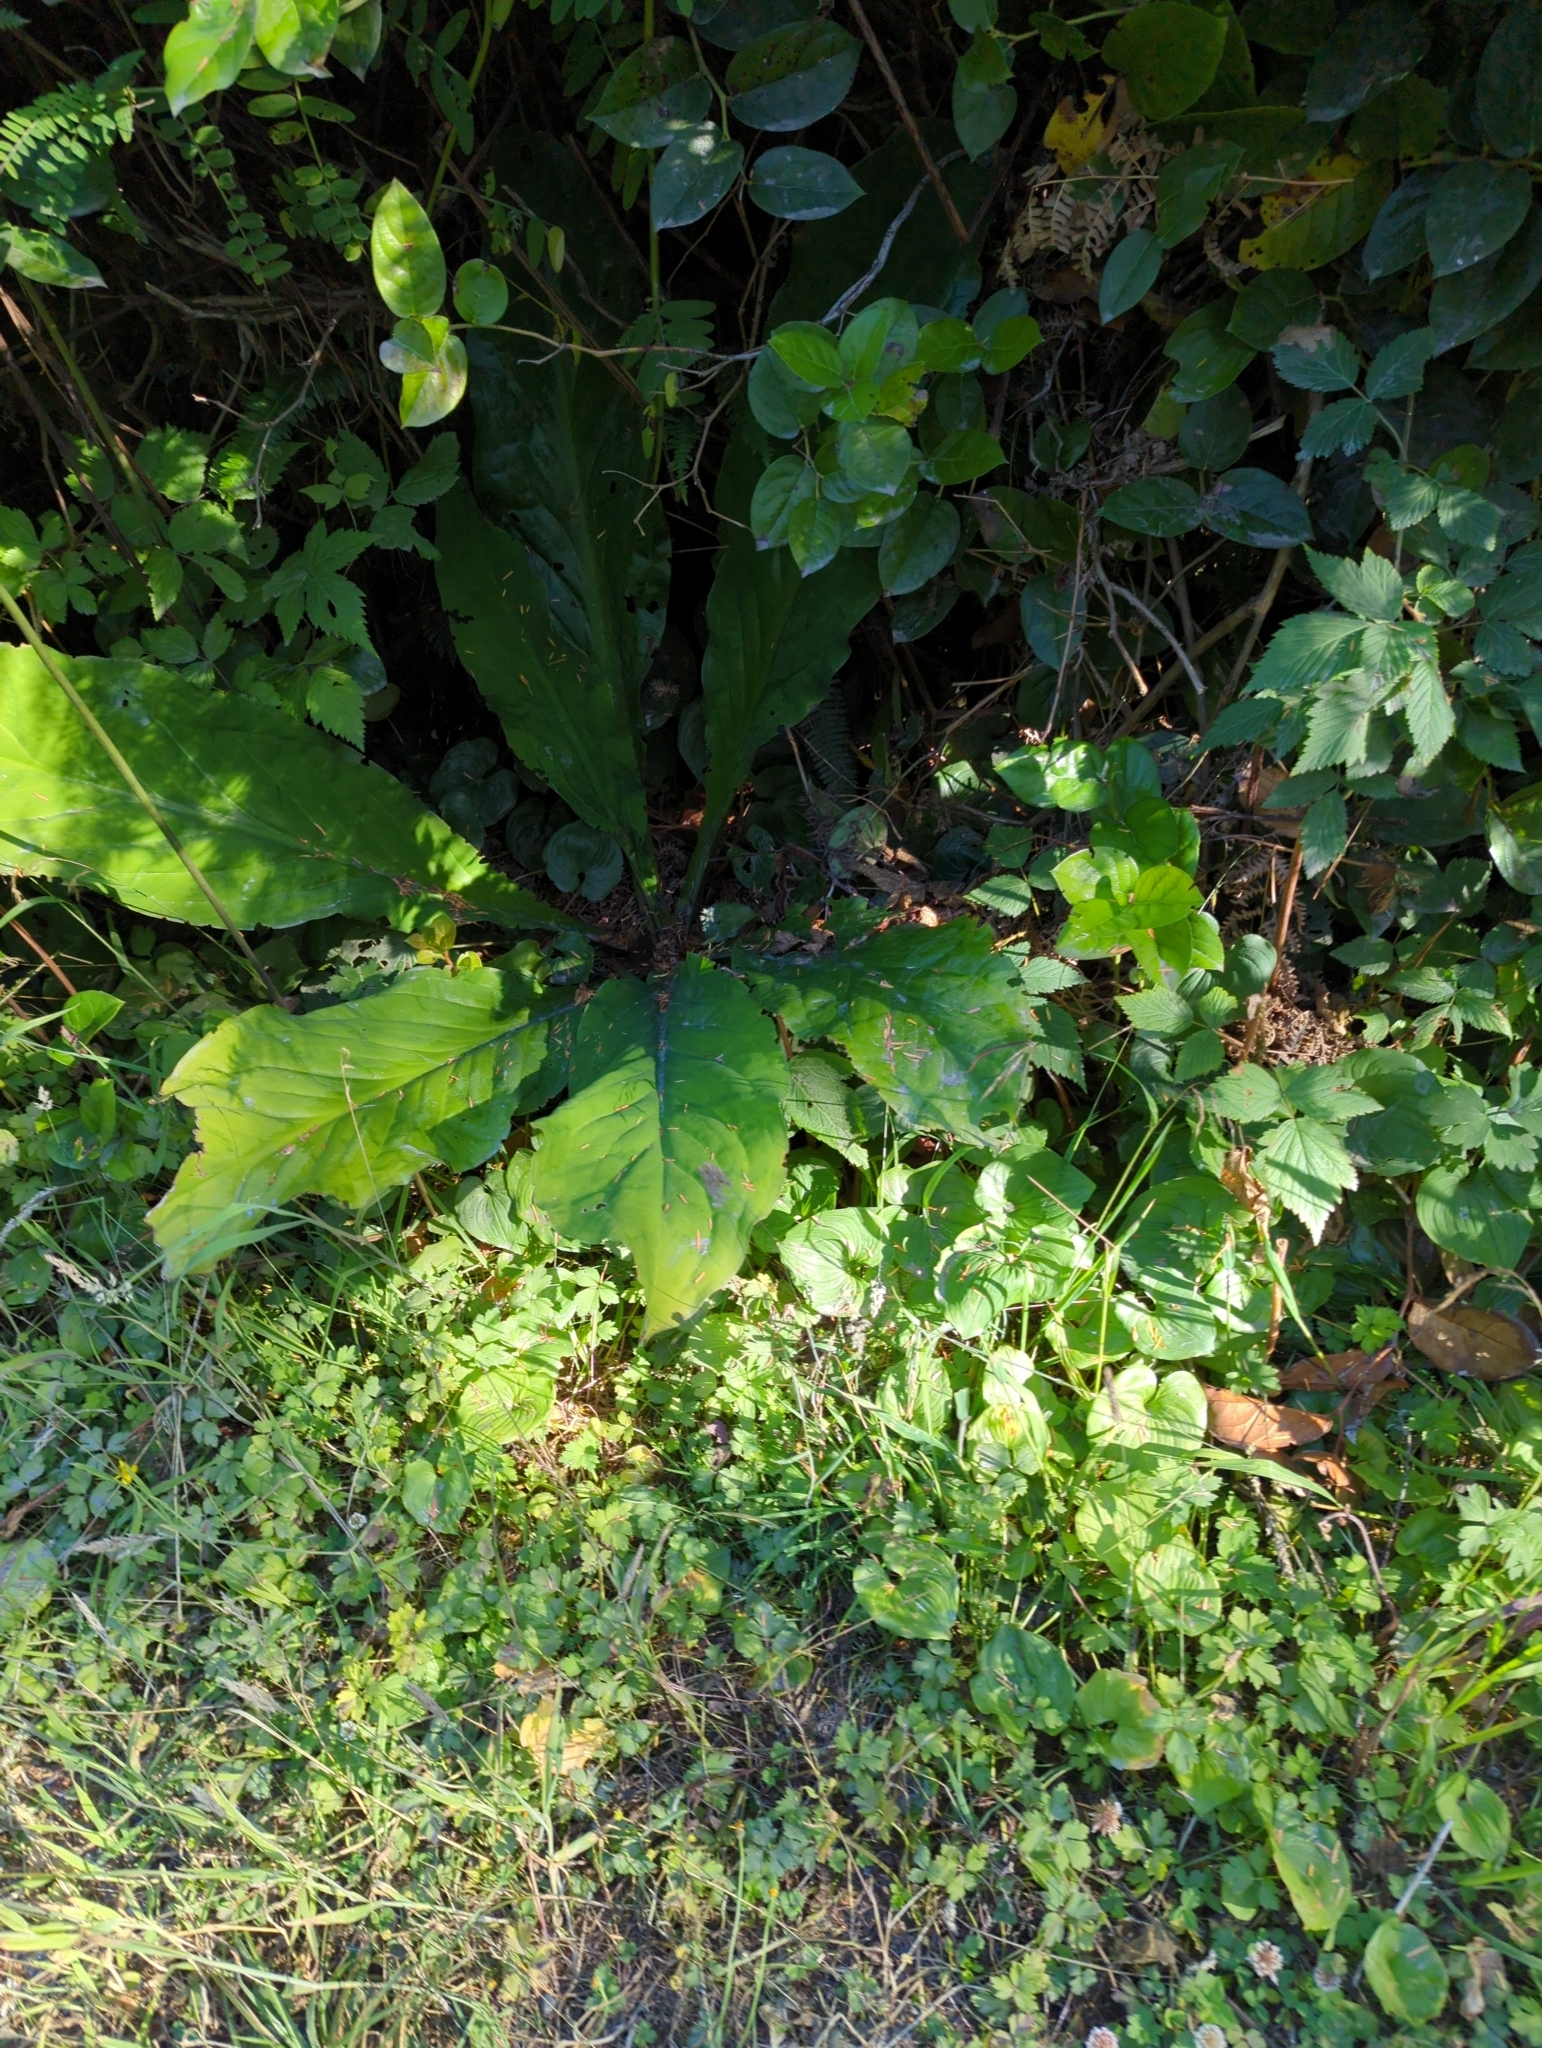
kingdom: Plantae
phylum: Tracheophyta
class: Liliopsida
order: Alismatales
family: Araceae
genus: Lysichiton
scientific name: Lysichiton americanus
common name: American skunk cabbage
